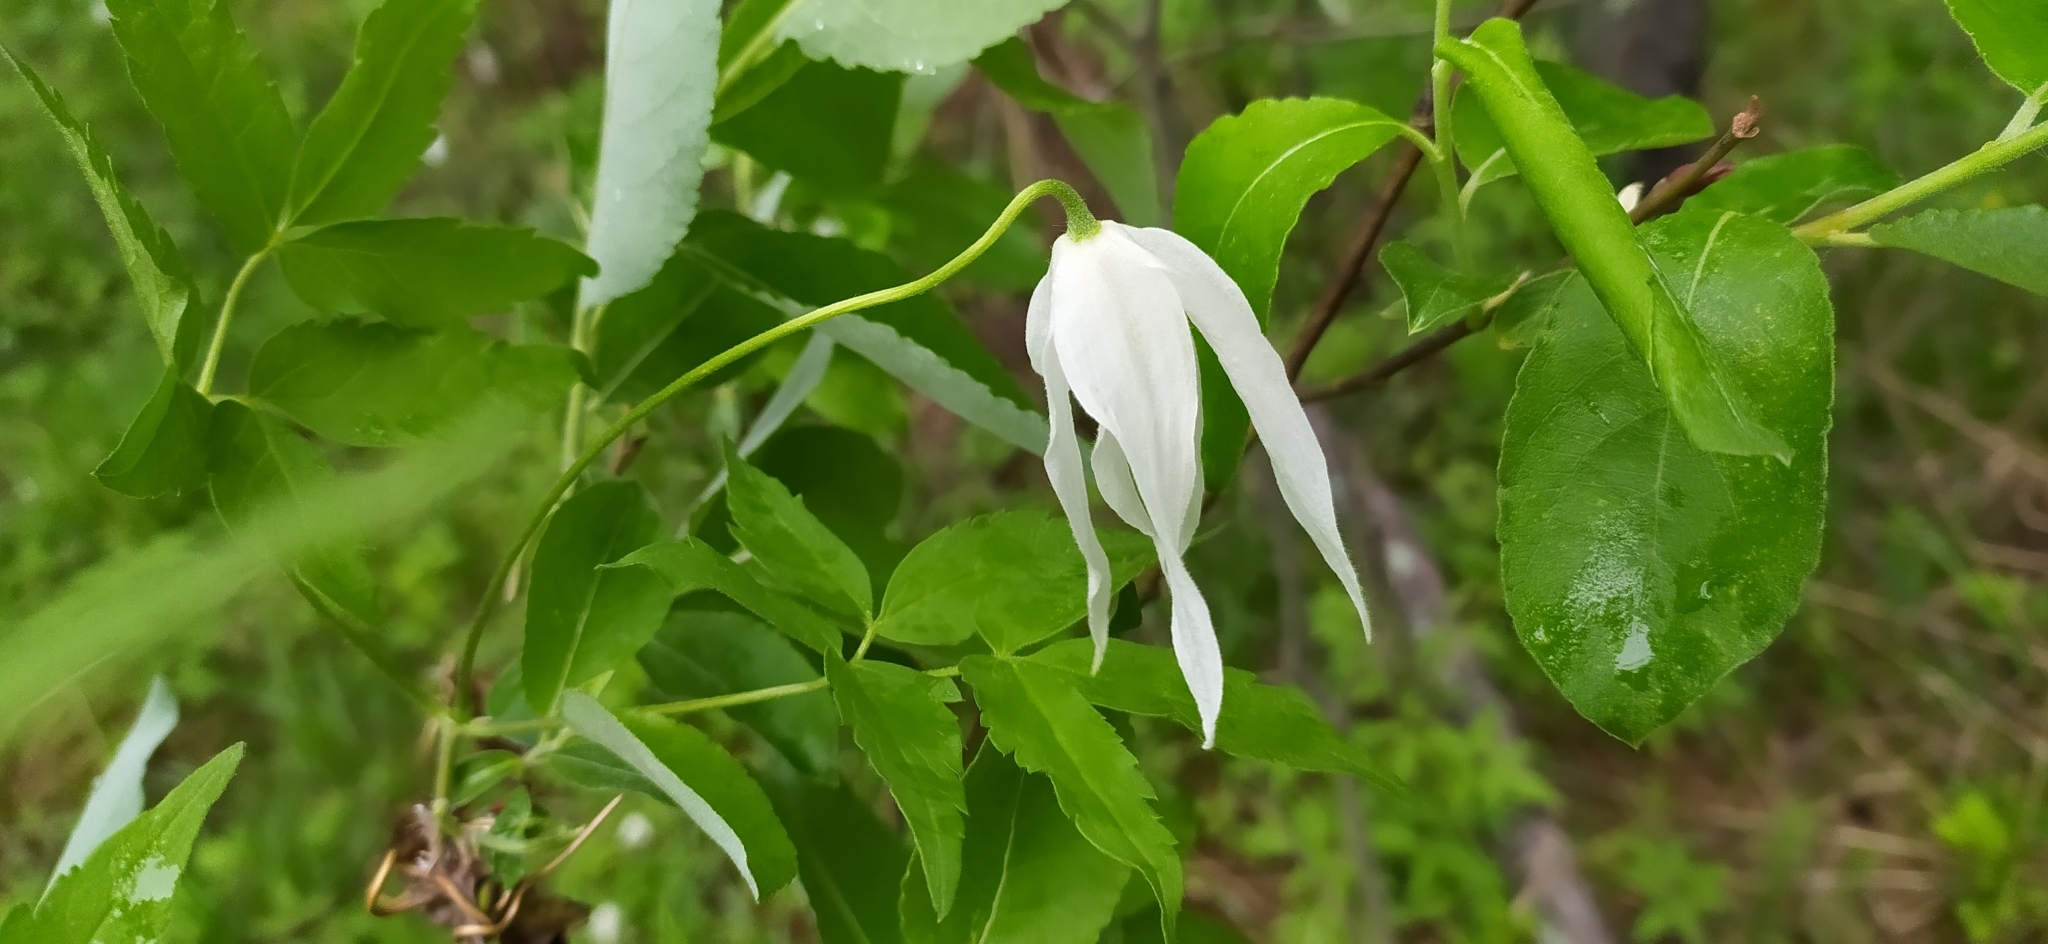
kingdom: Plantae
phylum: Tracheophyta
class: Magnoliopsida
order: Ranunculales
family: Ranunculaceae
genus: Clematis
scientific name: Clematis sibirica
